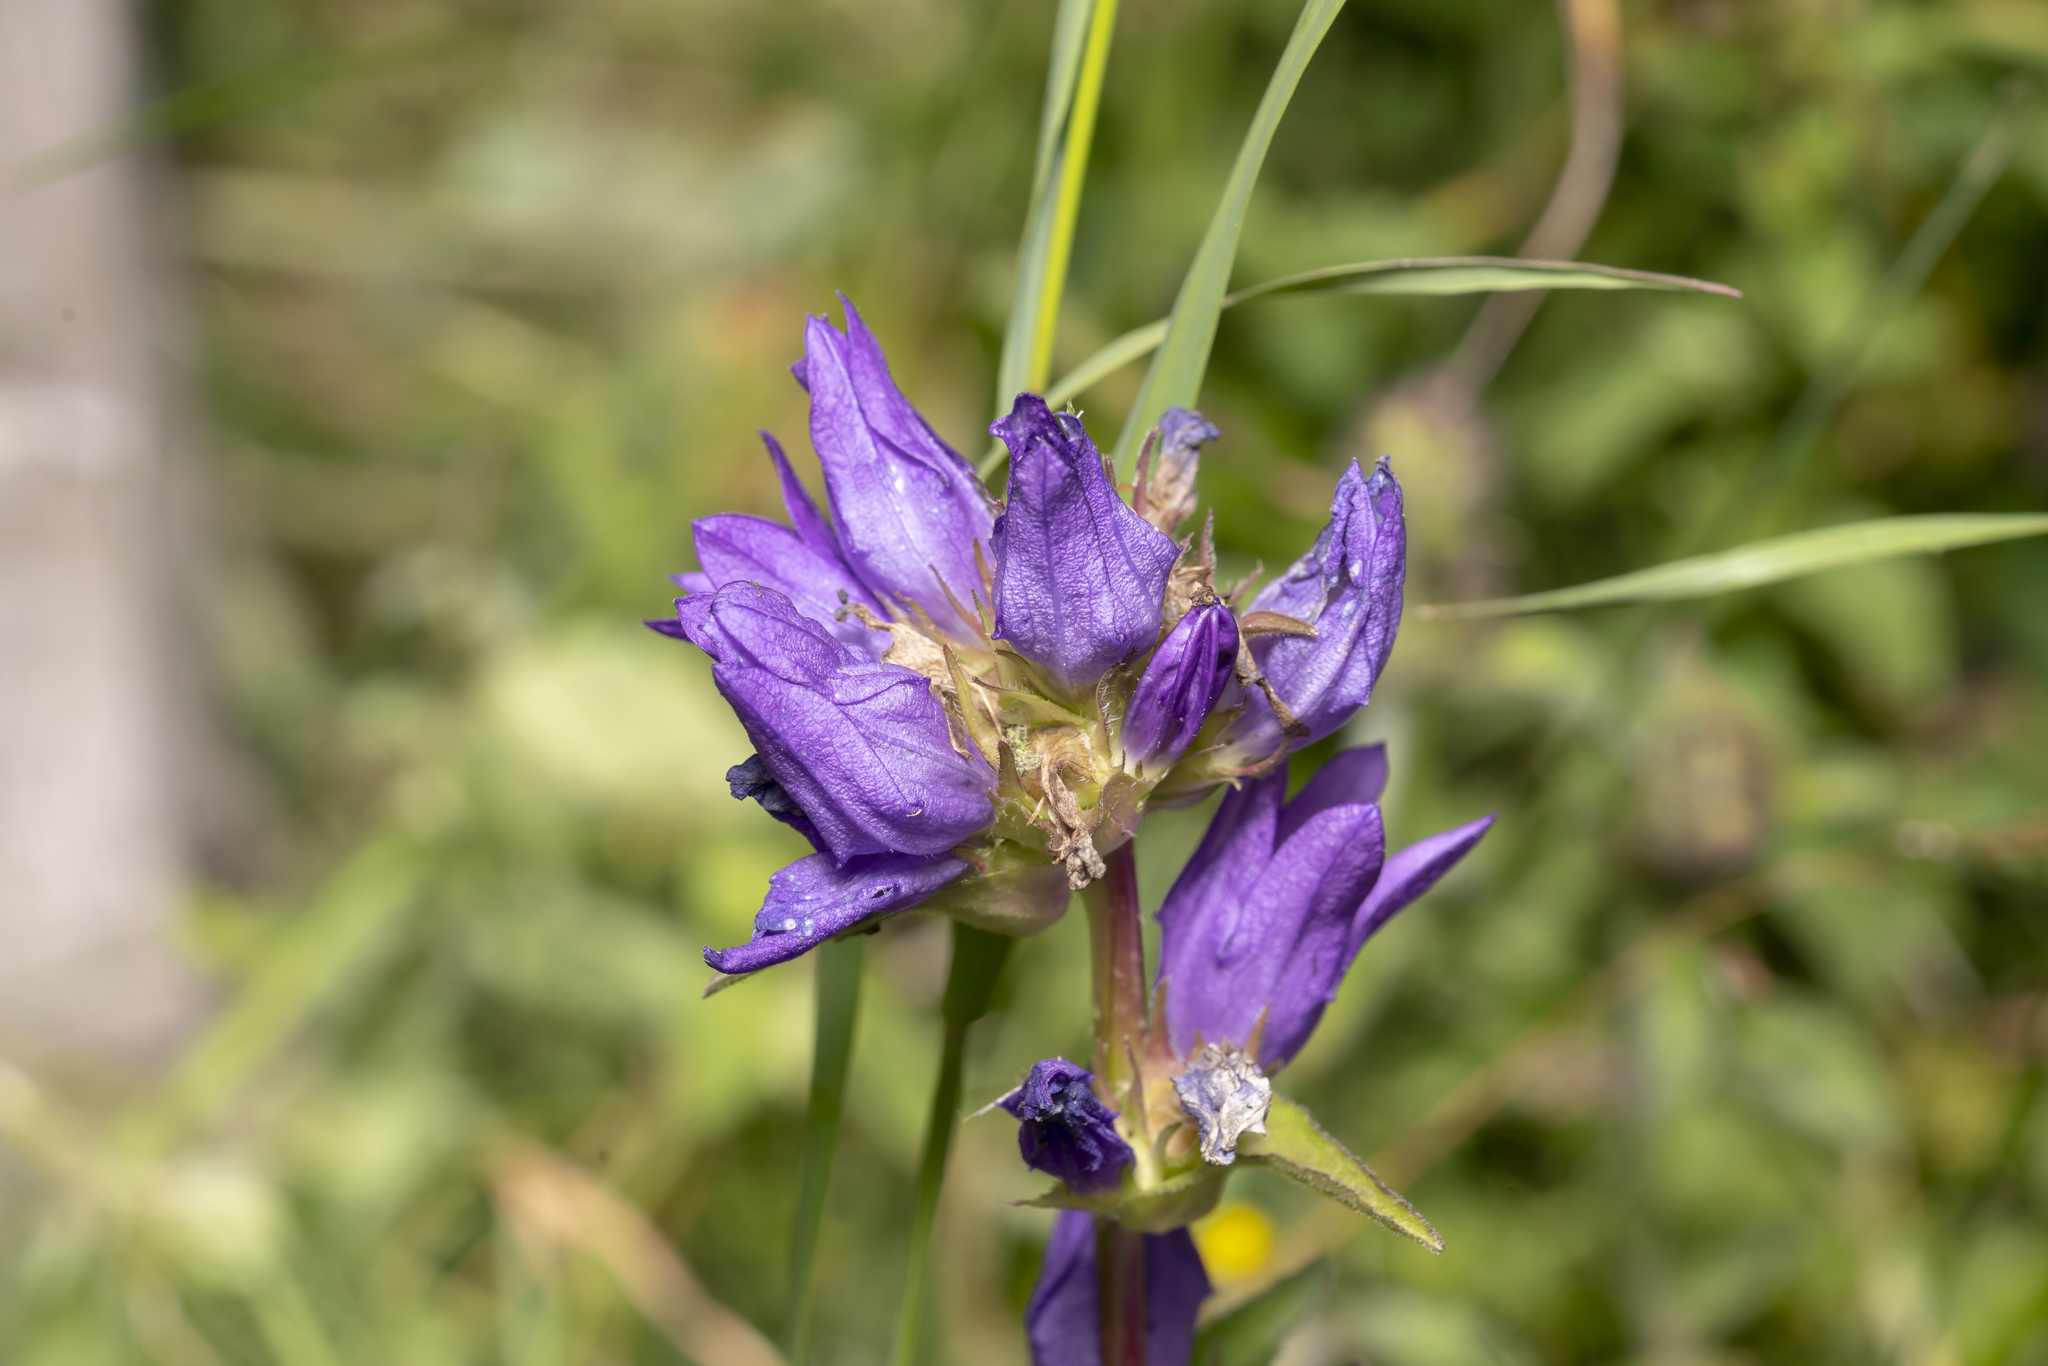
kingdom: Plantae
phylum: Tracheophyta
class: Magnoliopsida
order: Asterales
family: Campanulaceae
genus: Campanula
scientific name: Campanula glomerata
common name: Clustered bellflower
